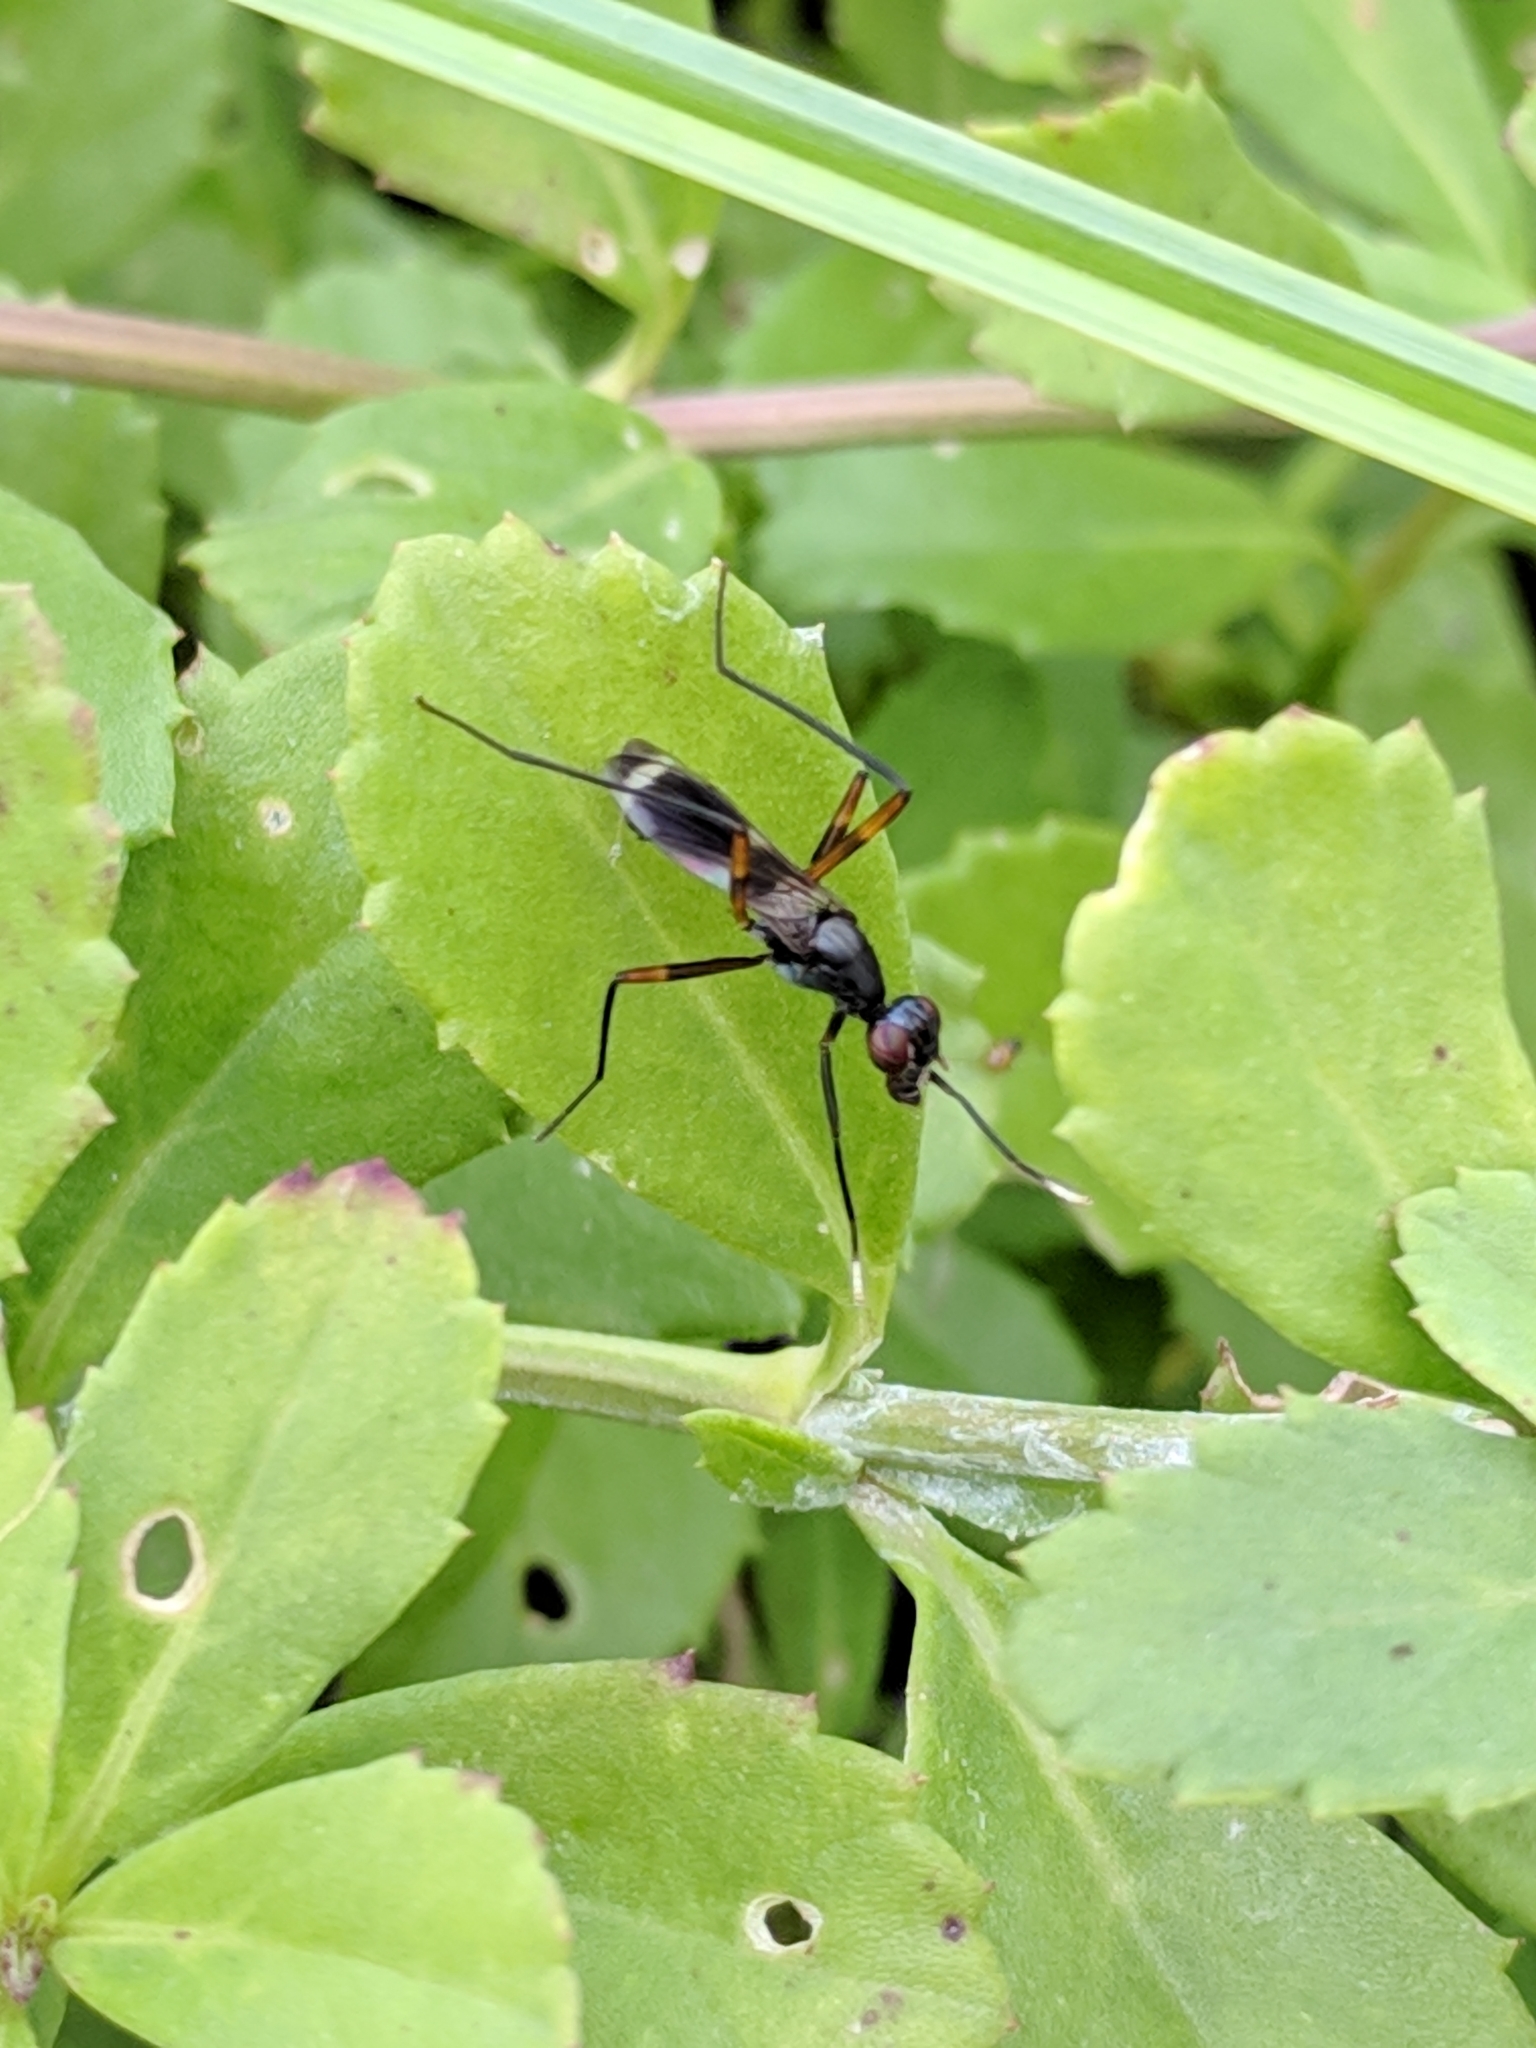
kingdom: Animalia
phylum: Arthropoda
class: Insecta
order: Diptera
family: Micropezidae
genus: Taeniaptera
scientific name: Taeniaptera trivittata
